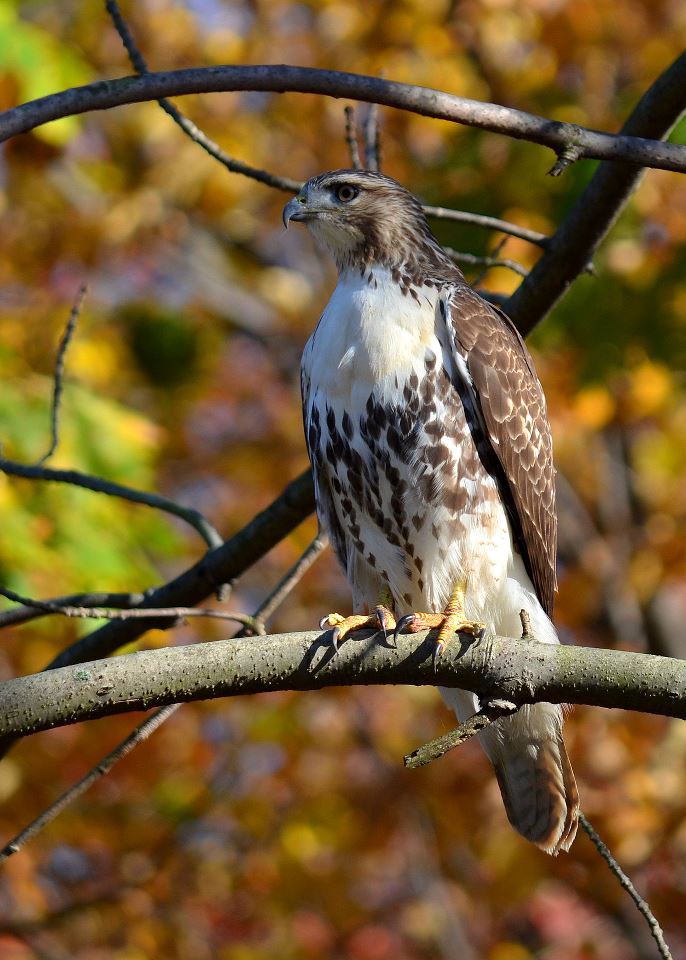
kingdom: Animalia
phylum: Chordata
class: Aves
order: Accipitriformes
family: Accipitridae
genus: Buteo
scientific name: Buteo jamaicensis
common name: Red-tailed hawk
